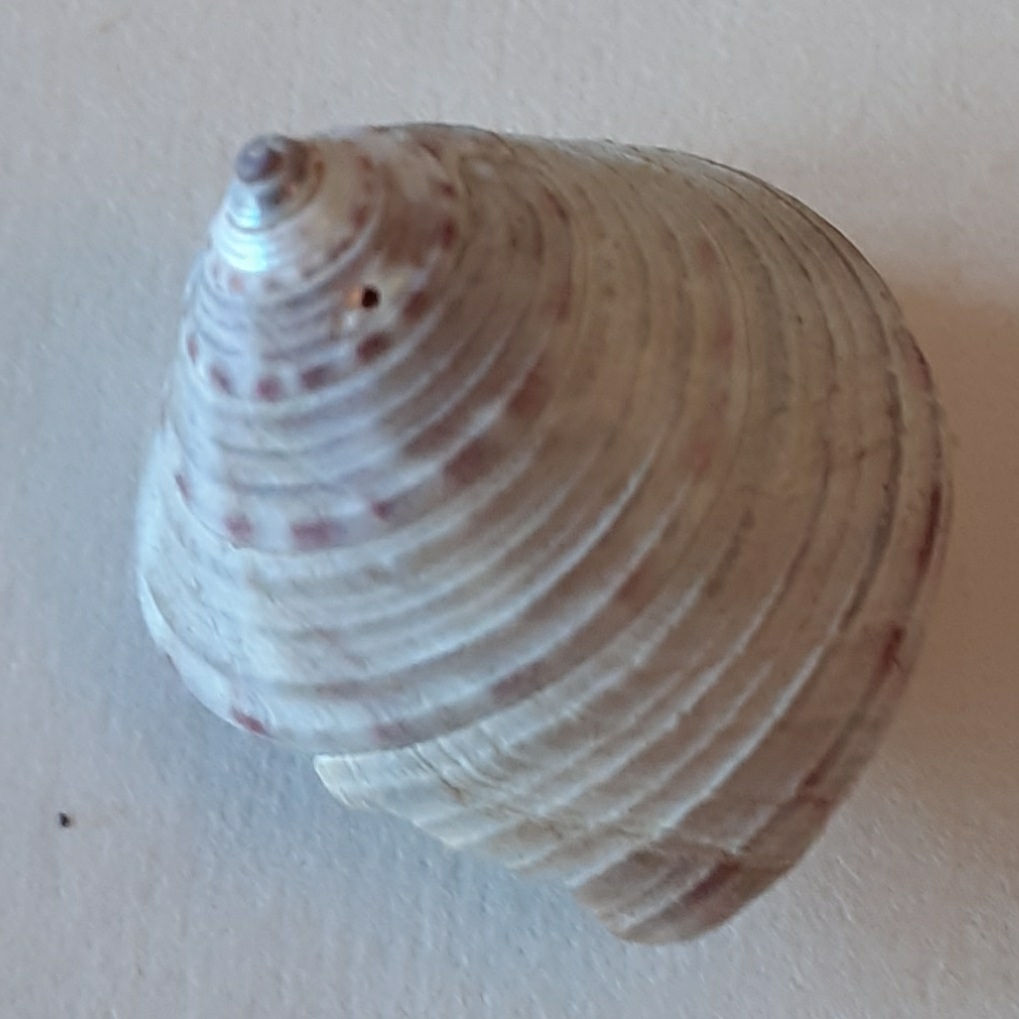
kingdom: Animalia
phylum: Mollusca
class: Gastropoda
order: Trochida
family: Calliostomatidae
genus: Calliostoma
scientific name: Calliostoma zizyphinum
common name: Painted top shell
